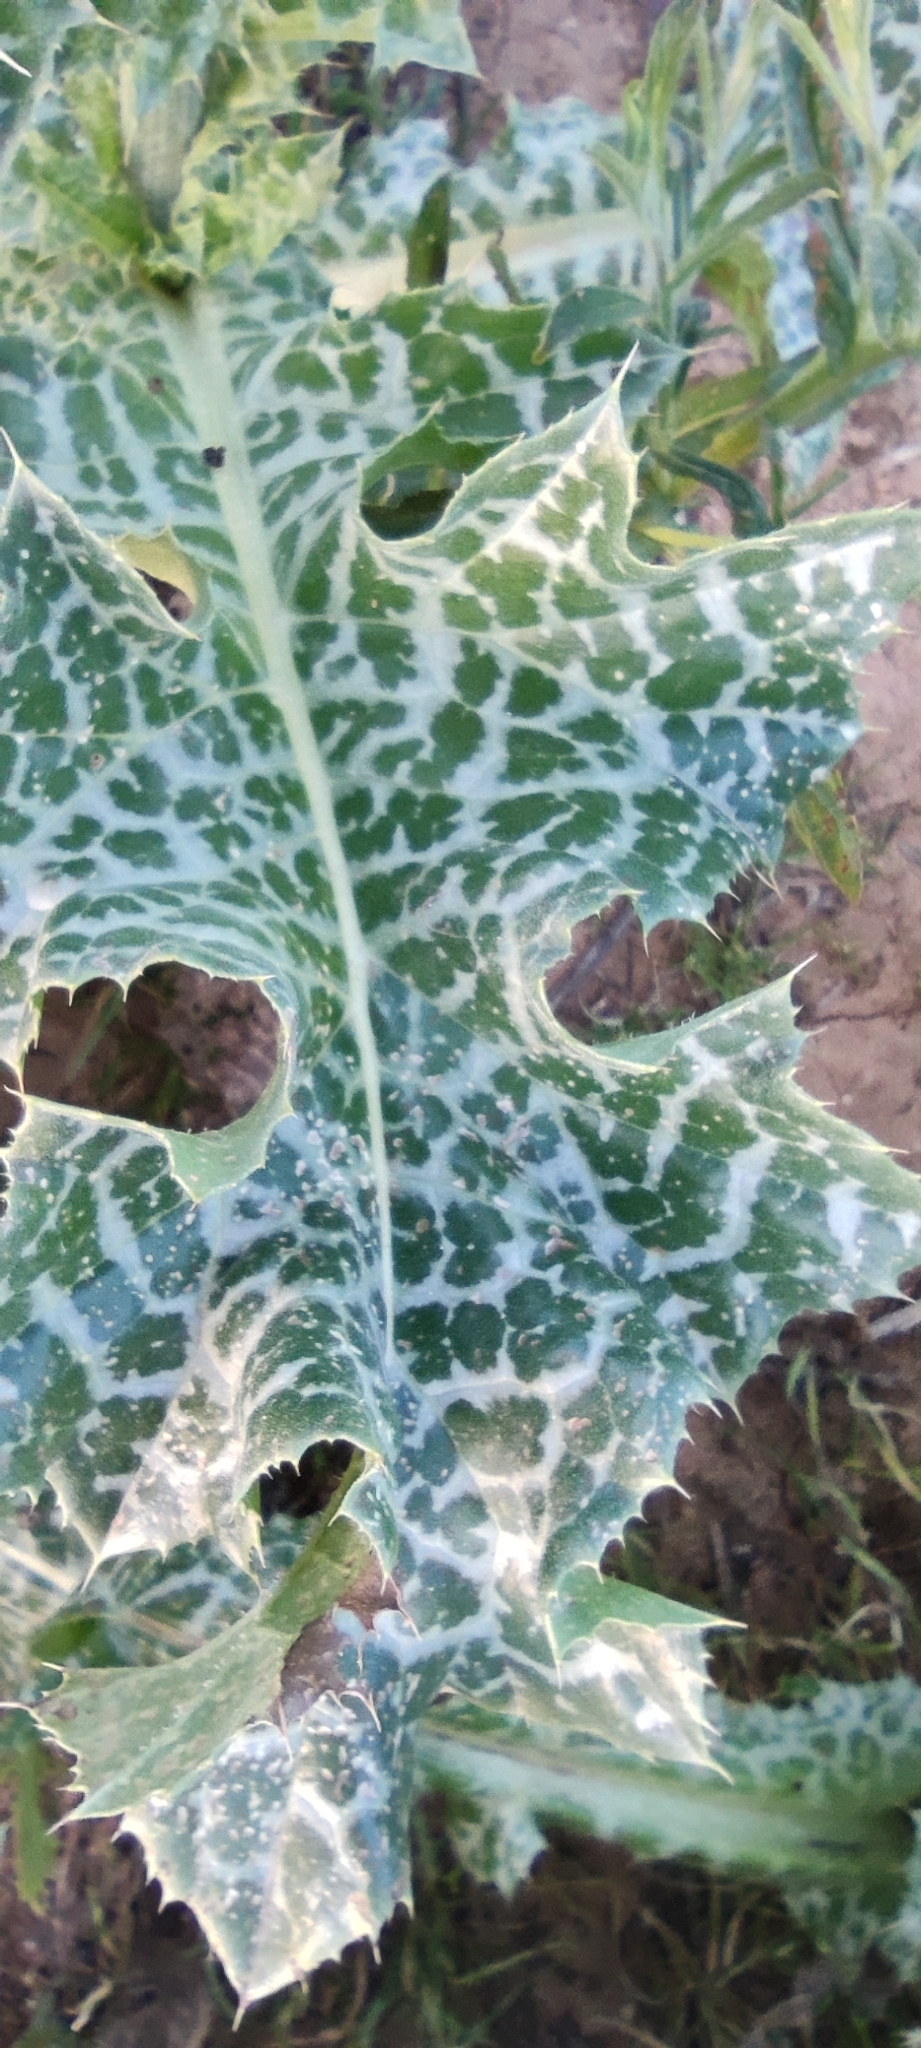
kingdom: Plantae
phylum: Tracheophyta
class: Magnoliopsida
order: Asterales
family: Asteraceae
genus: Silybum
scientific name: Silybum marianum
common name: Milk thistle
